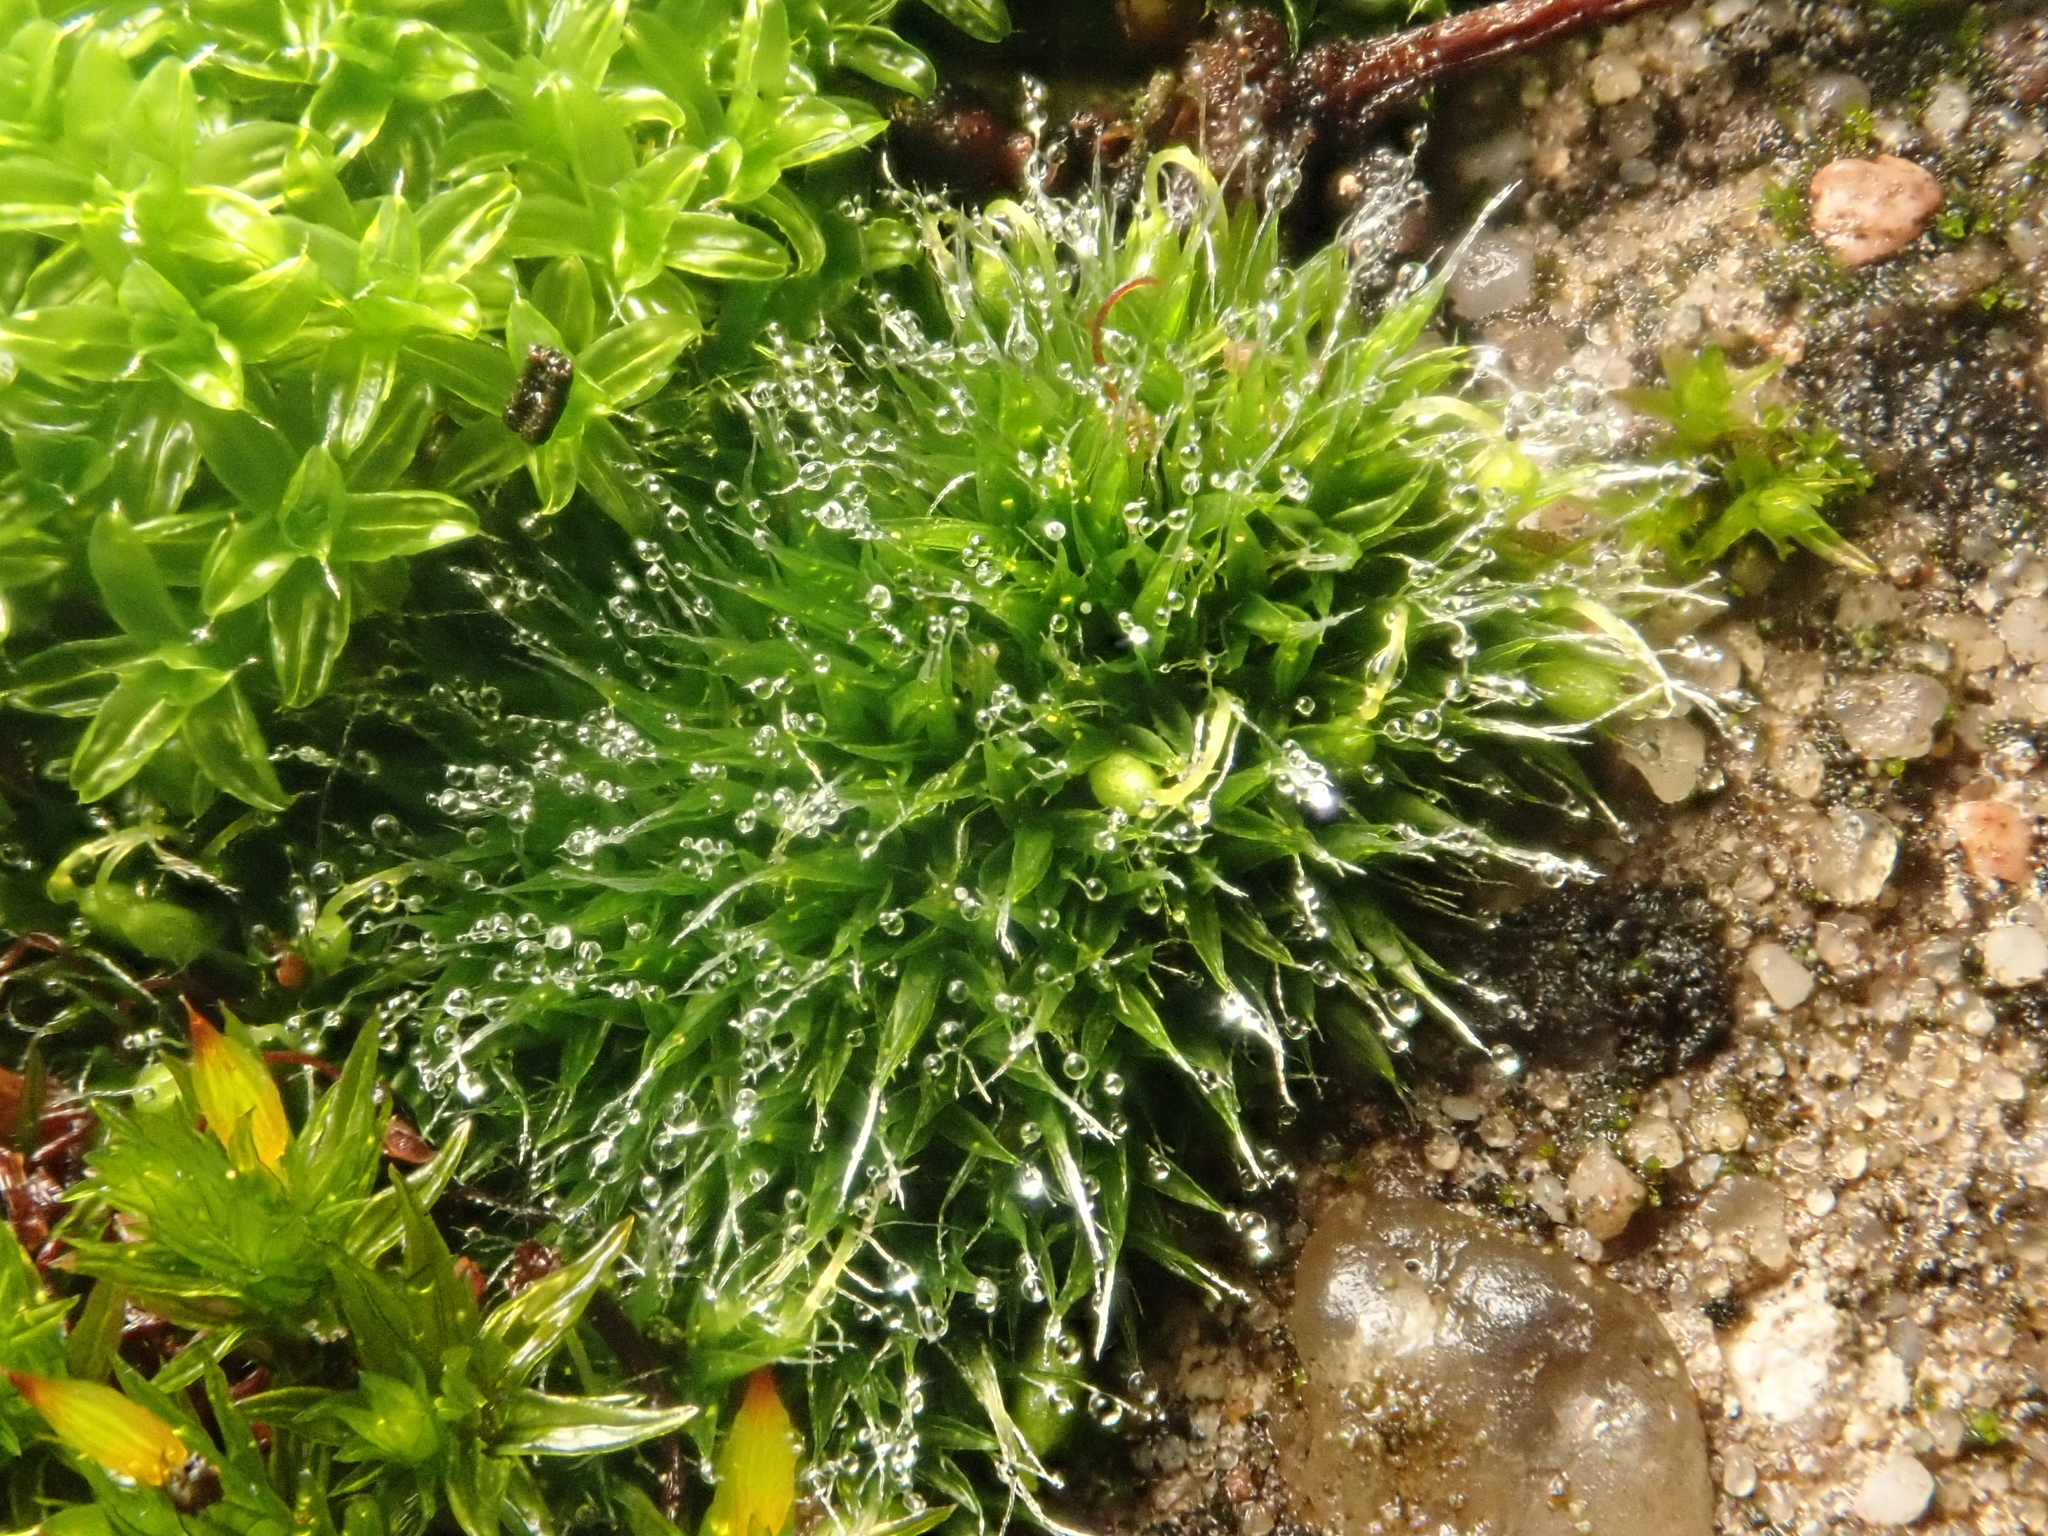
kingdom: Plantae
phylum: Bryophyta
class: Bryopsida
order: Grimmiales
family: Grimmiaceae
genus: Grimmia
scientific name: Grimmia pulvinata
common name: Grey-cushioned grimmia
